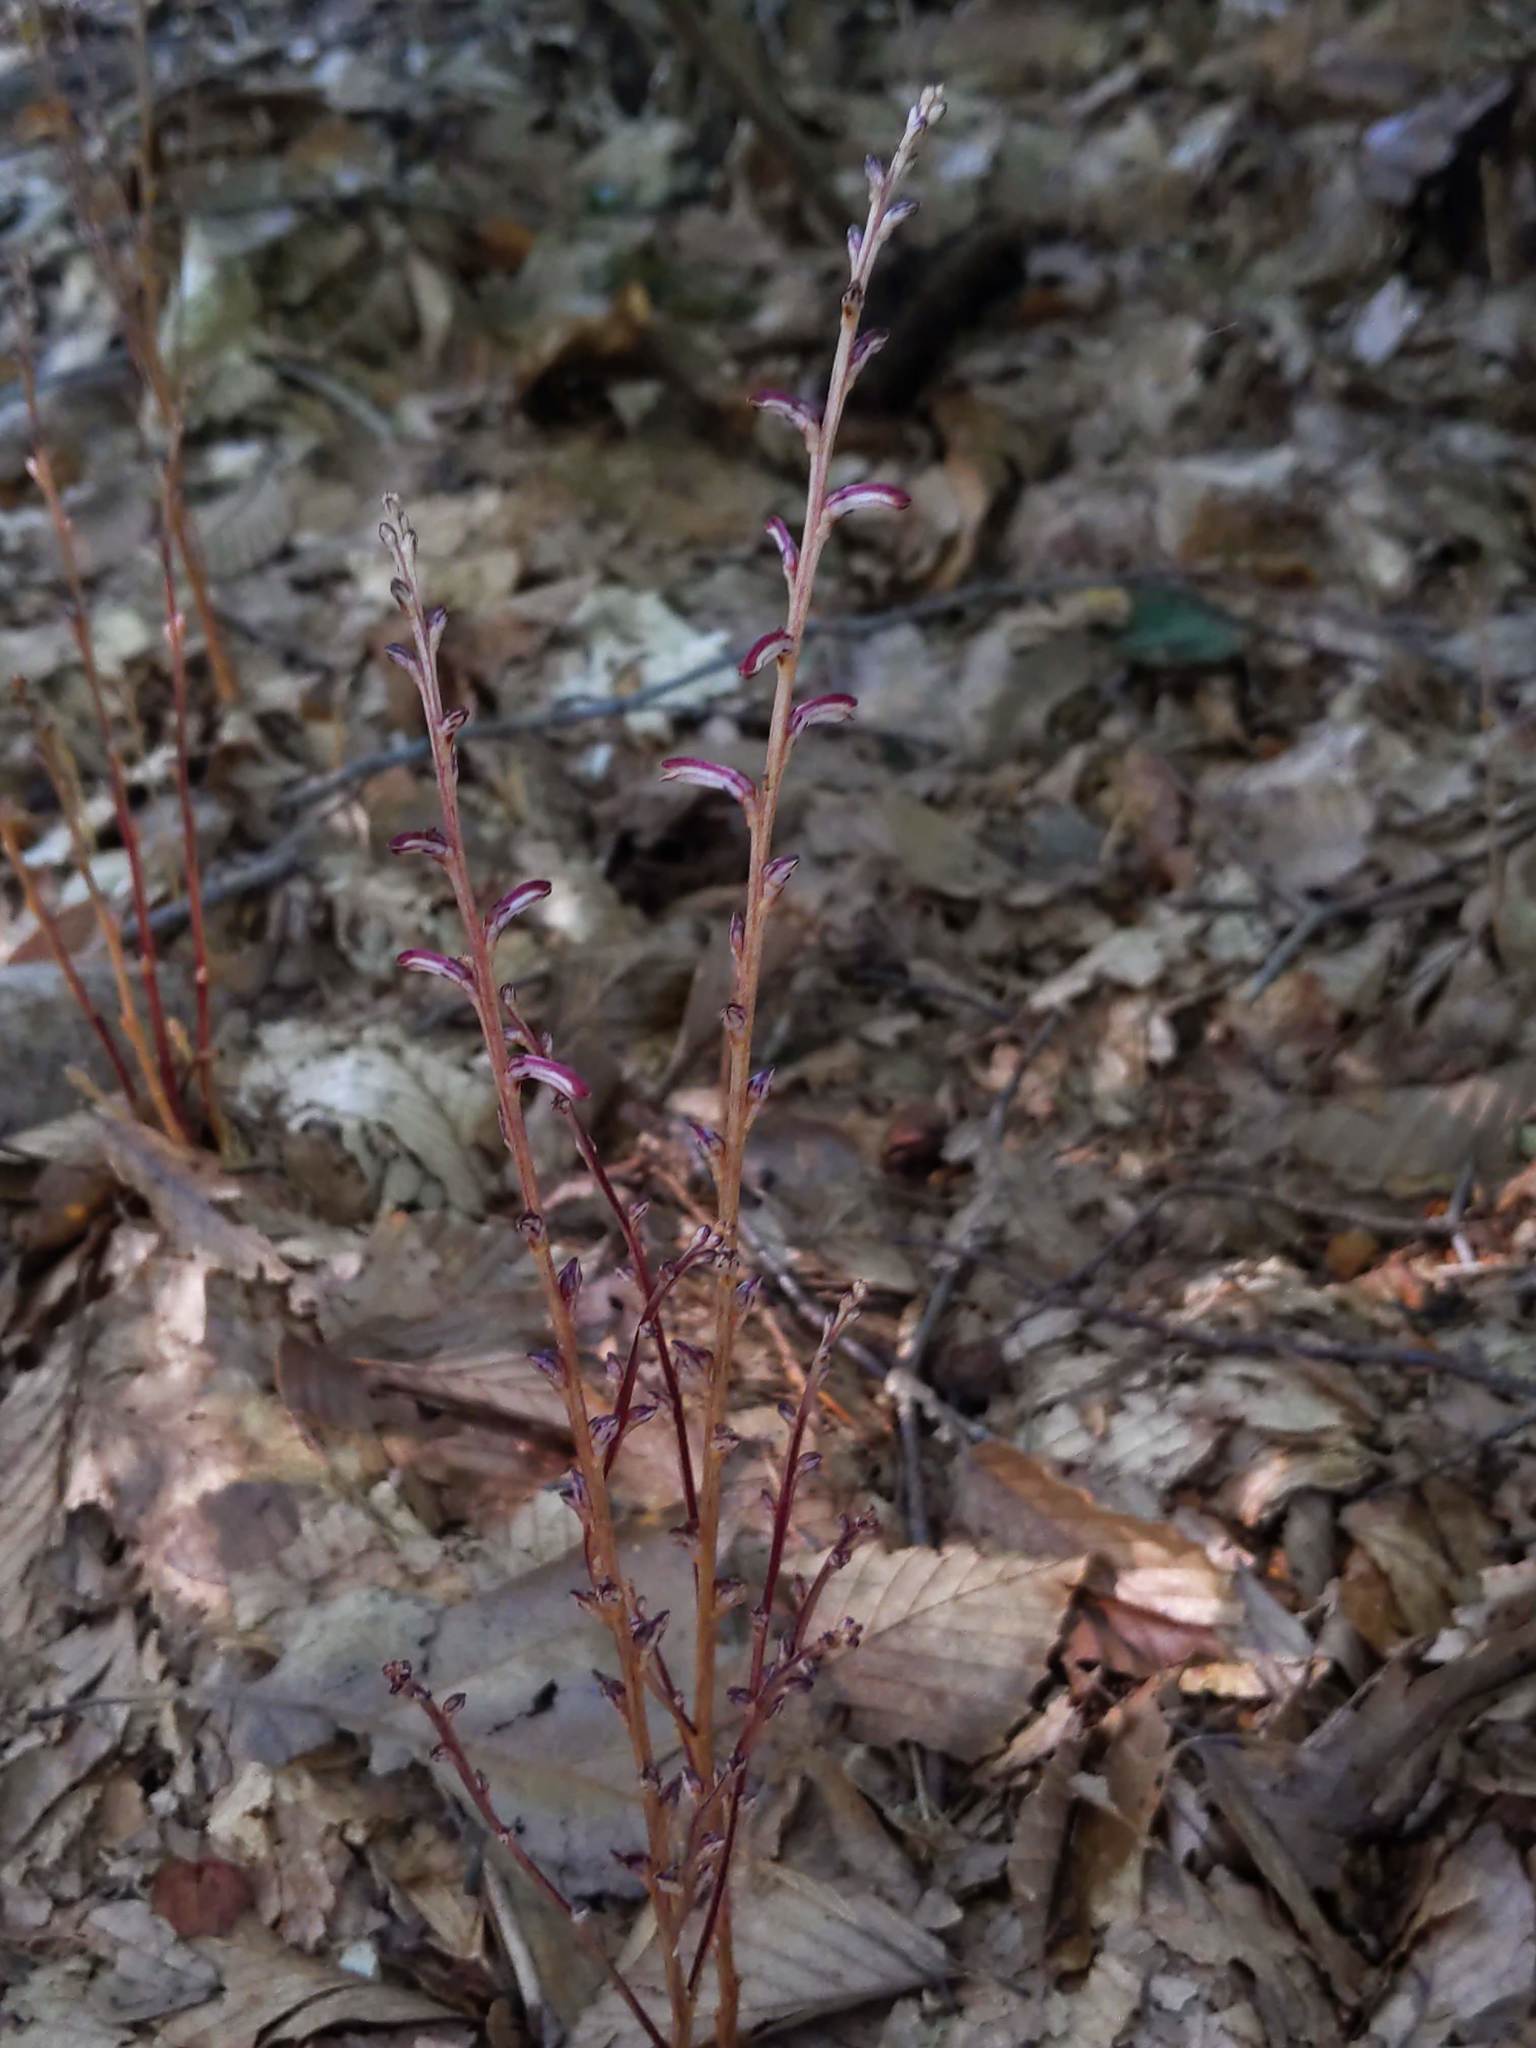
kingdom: Plantae
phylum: Tracheophyta
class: Magnoliopsida
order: Lamiales
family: Orobanchaceae
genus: Epifagus
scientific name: Epifagus virginiana
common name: Beechdrops
